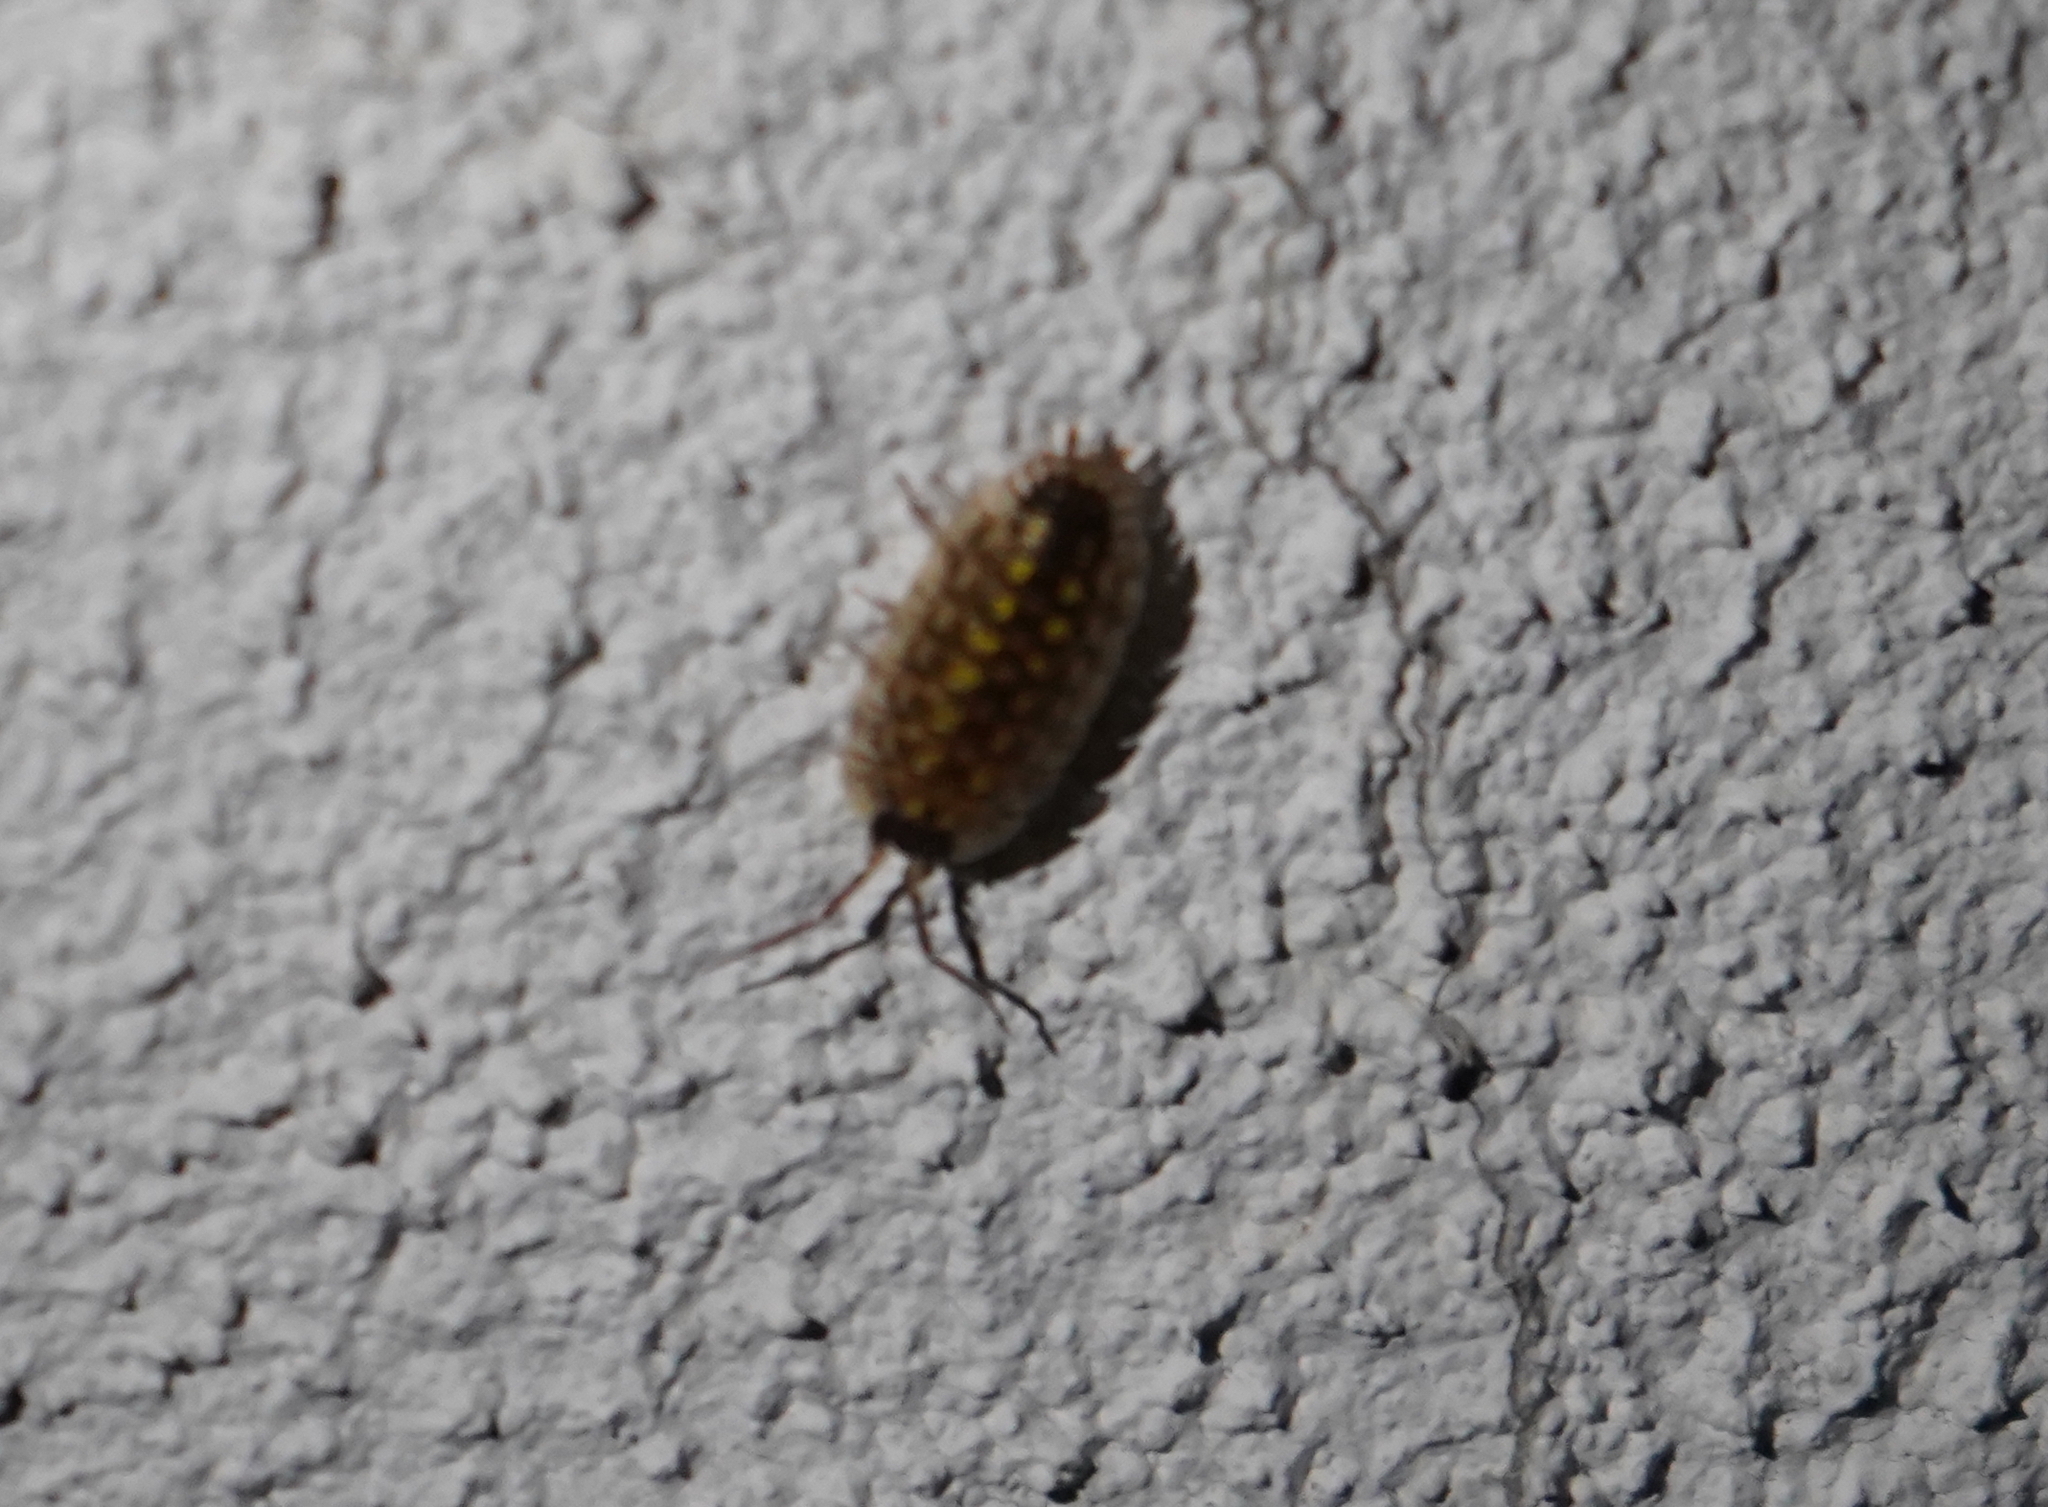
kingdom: Animalia
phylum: Arthropoda
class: Malacostraca
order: Isopoda
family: Porcellionidae
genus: Porcellio
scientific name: Porcellio spinicornis
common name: Painted woodlouse
